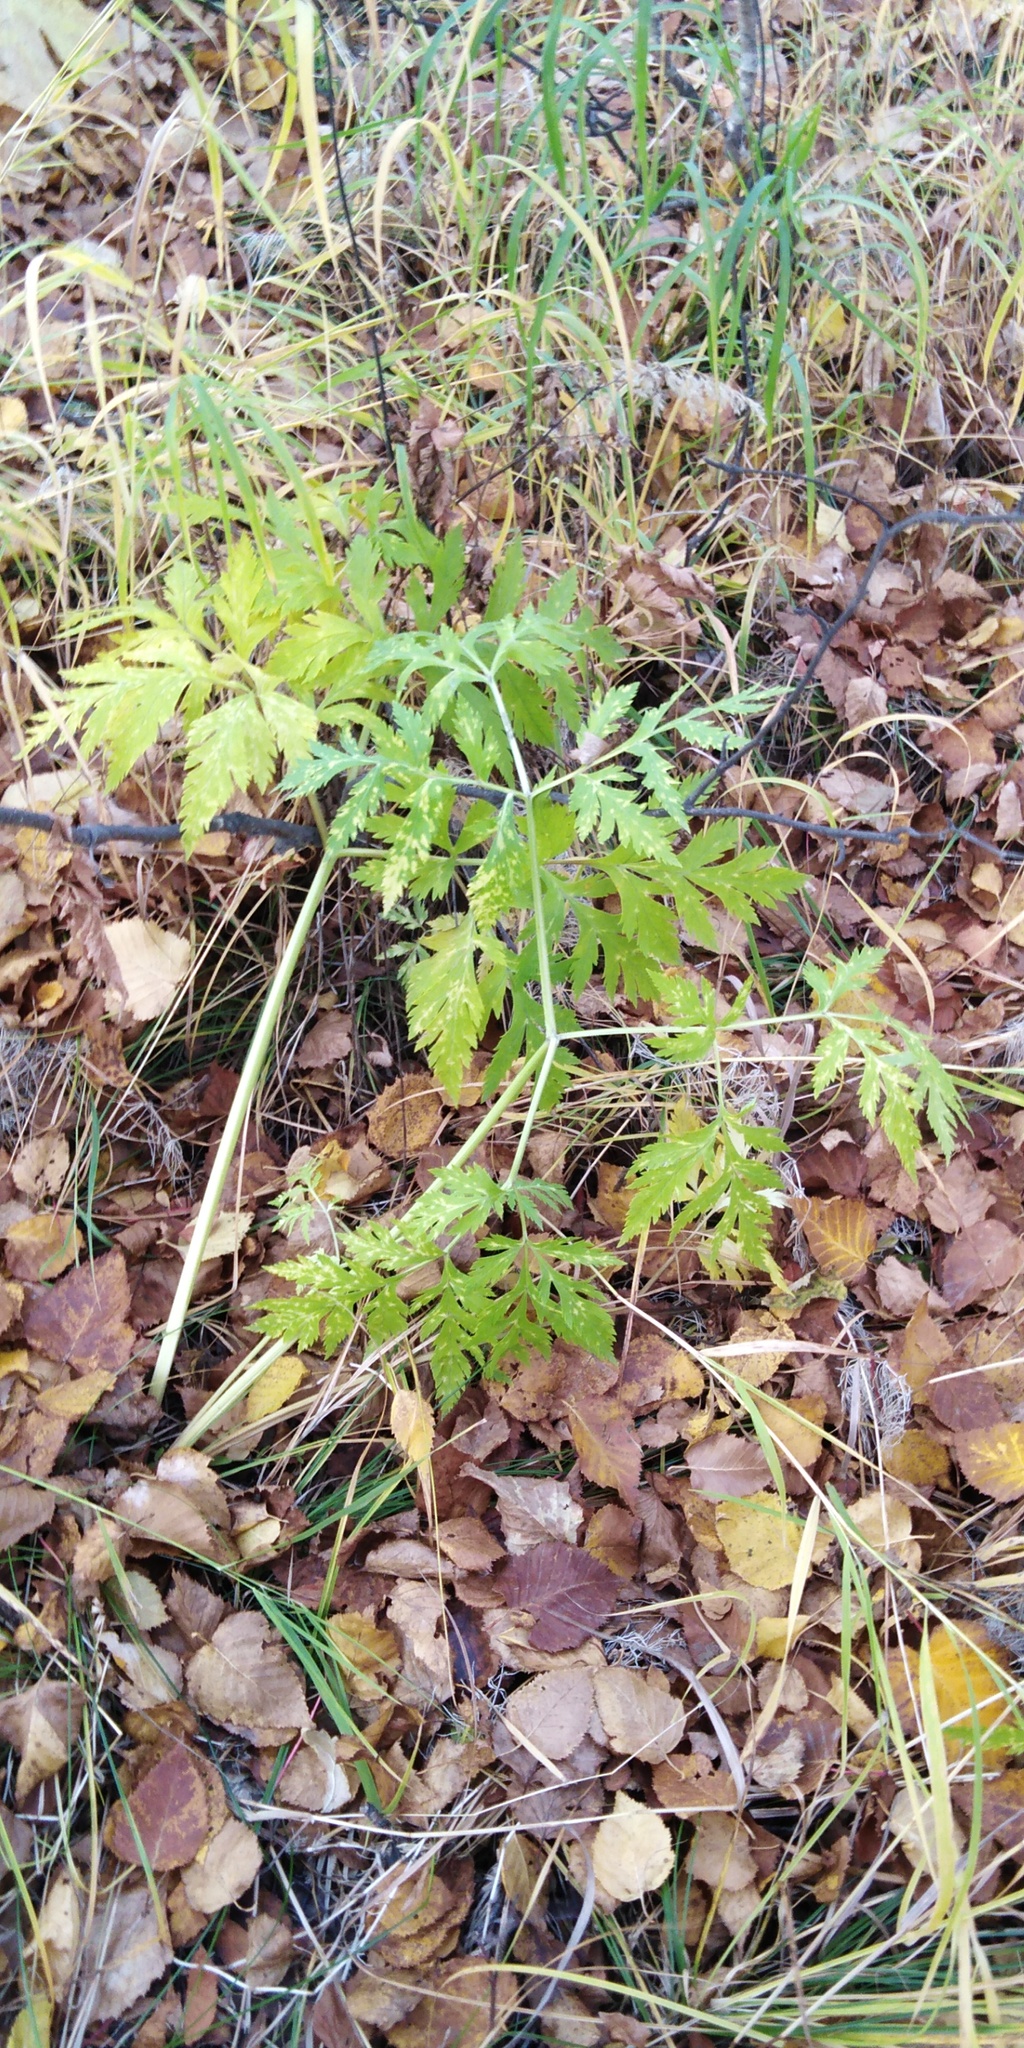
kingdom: Plantae
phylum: Tracheophyta
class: Magnoliopsida
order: Apiales
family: Apiaceae
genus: Pleurospermum
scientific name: Pleurospermum uralense
